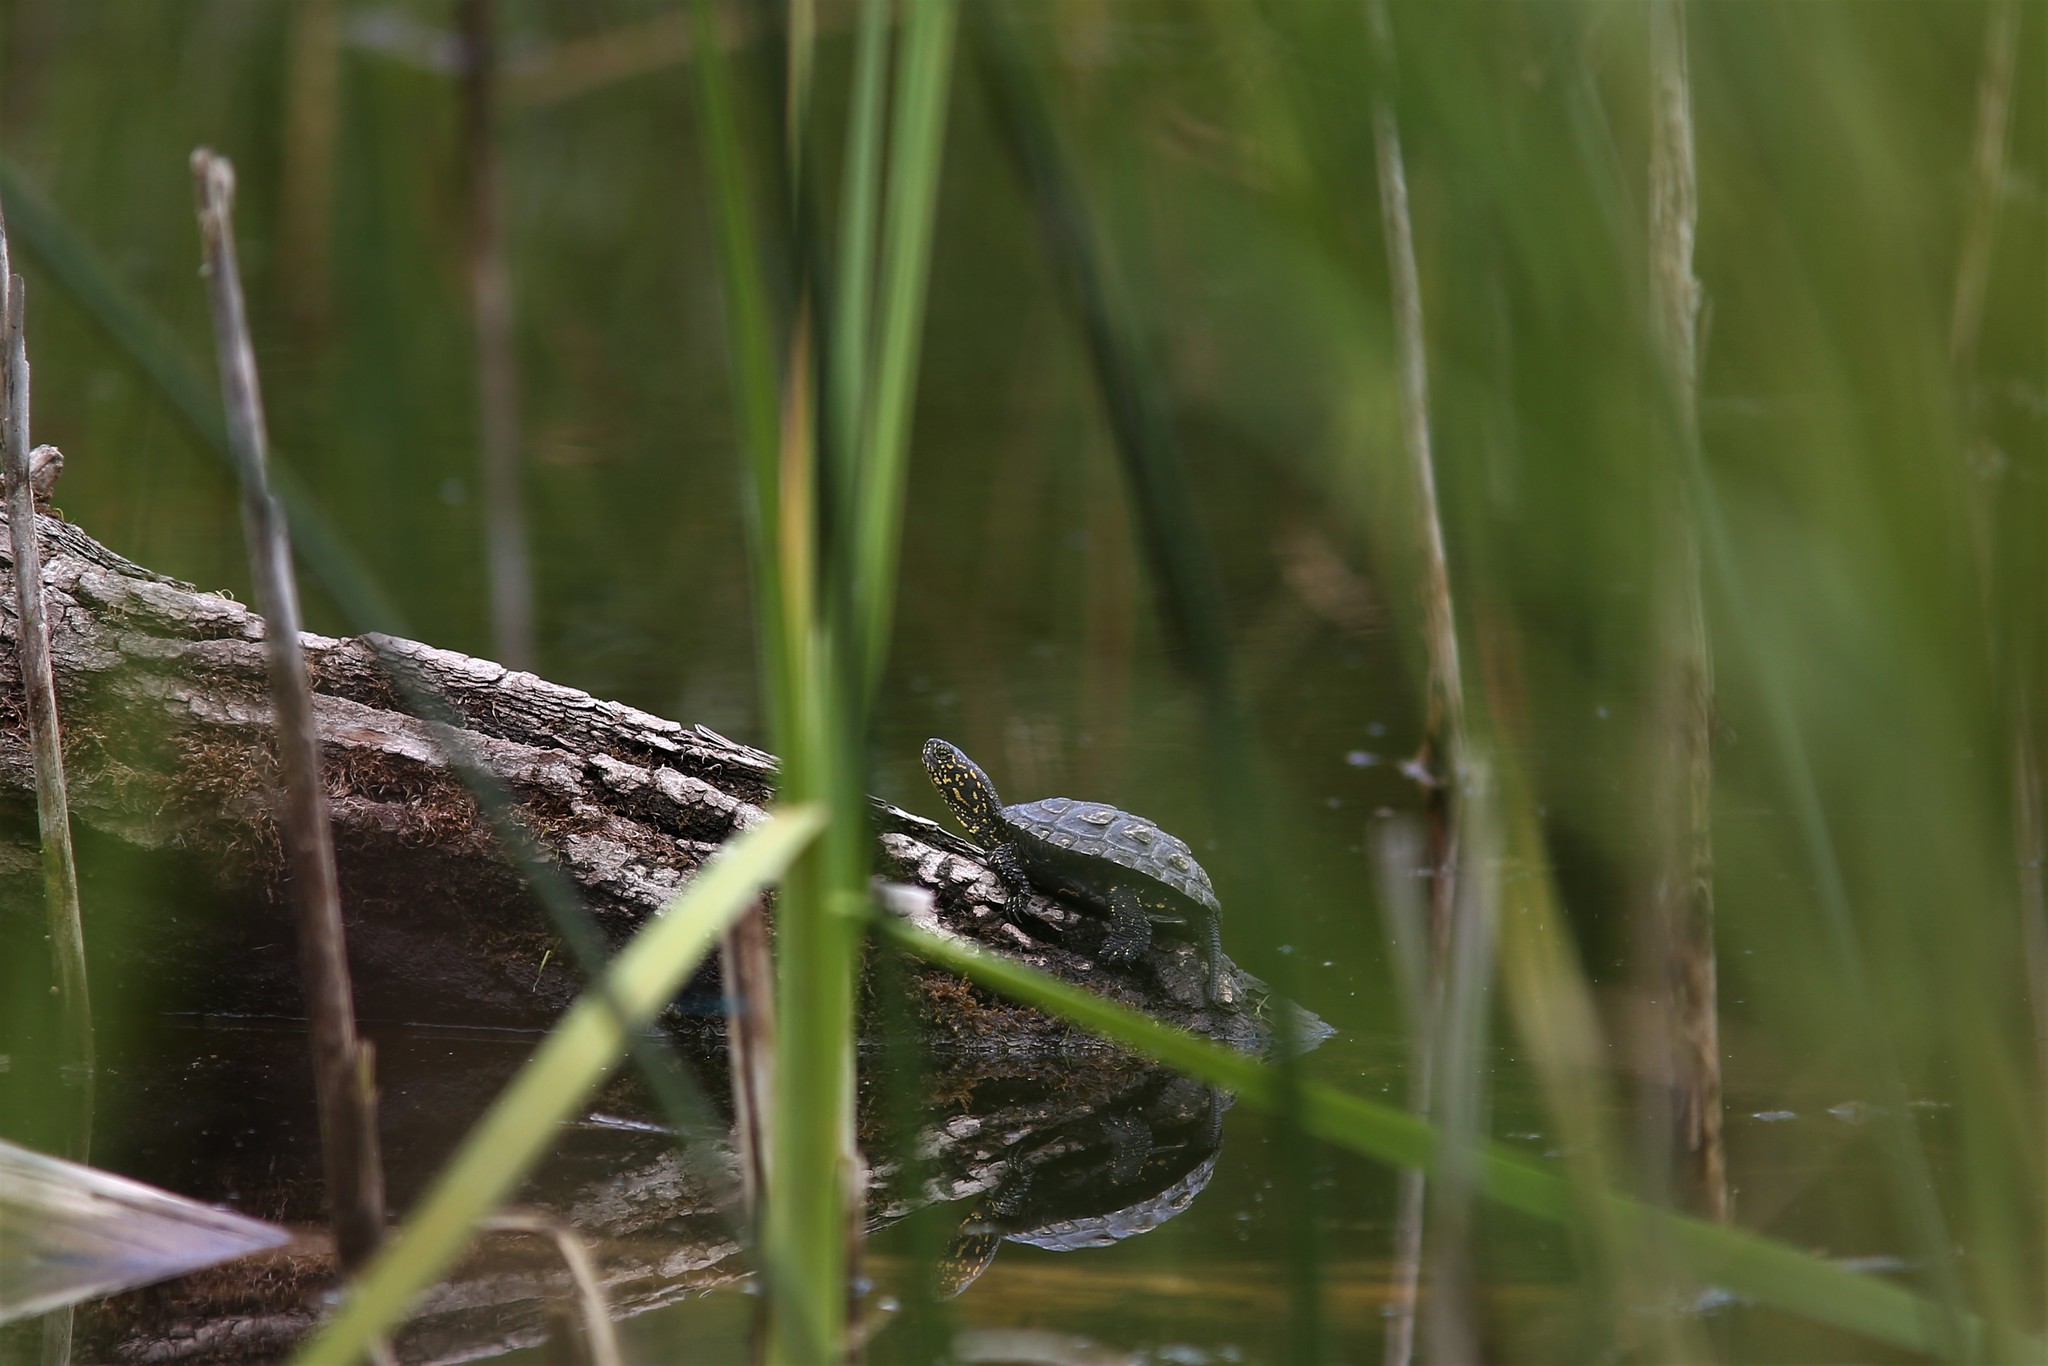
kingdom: Animalia
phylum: Chordata
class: Testudines
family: Emydidae
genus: Emys
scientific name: Emys orbicularis
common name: European pond turtle
